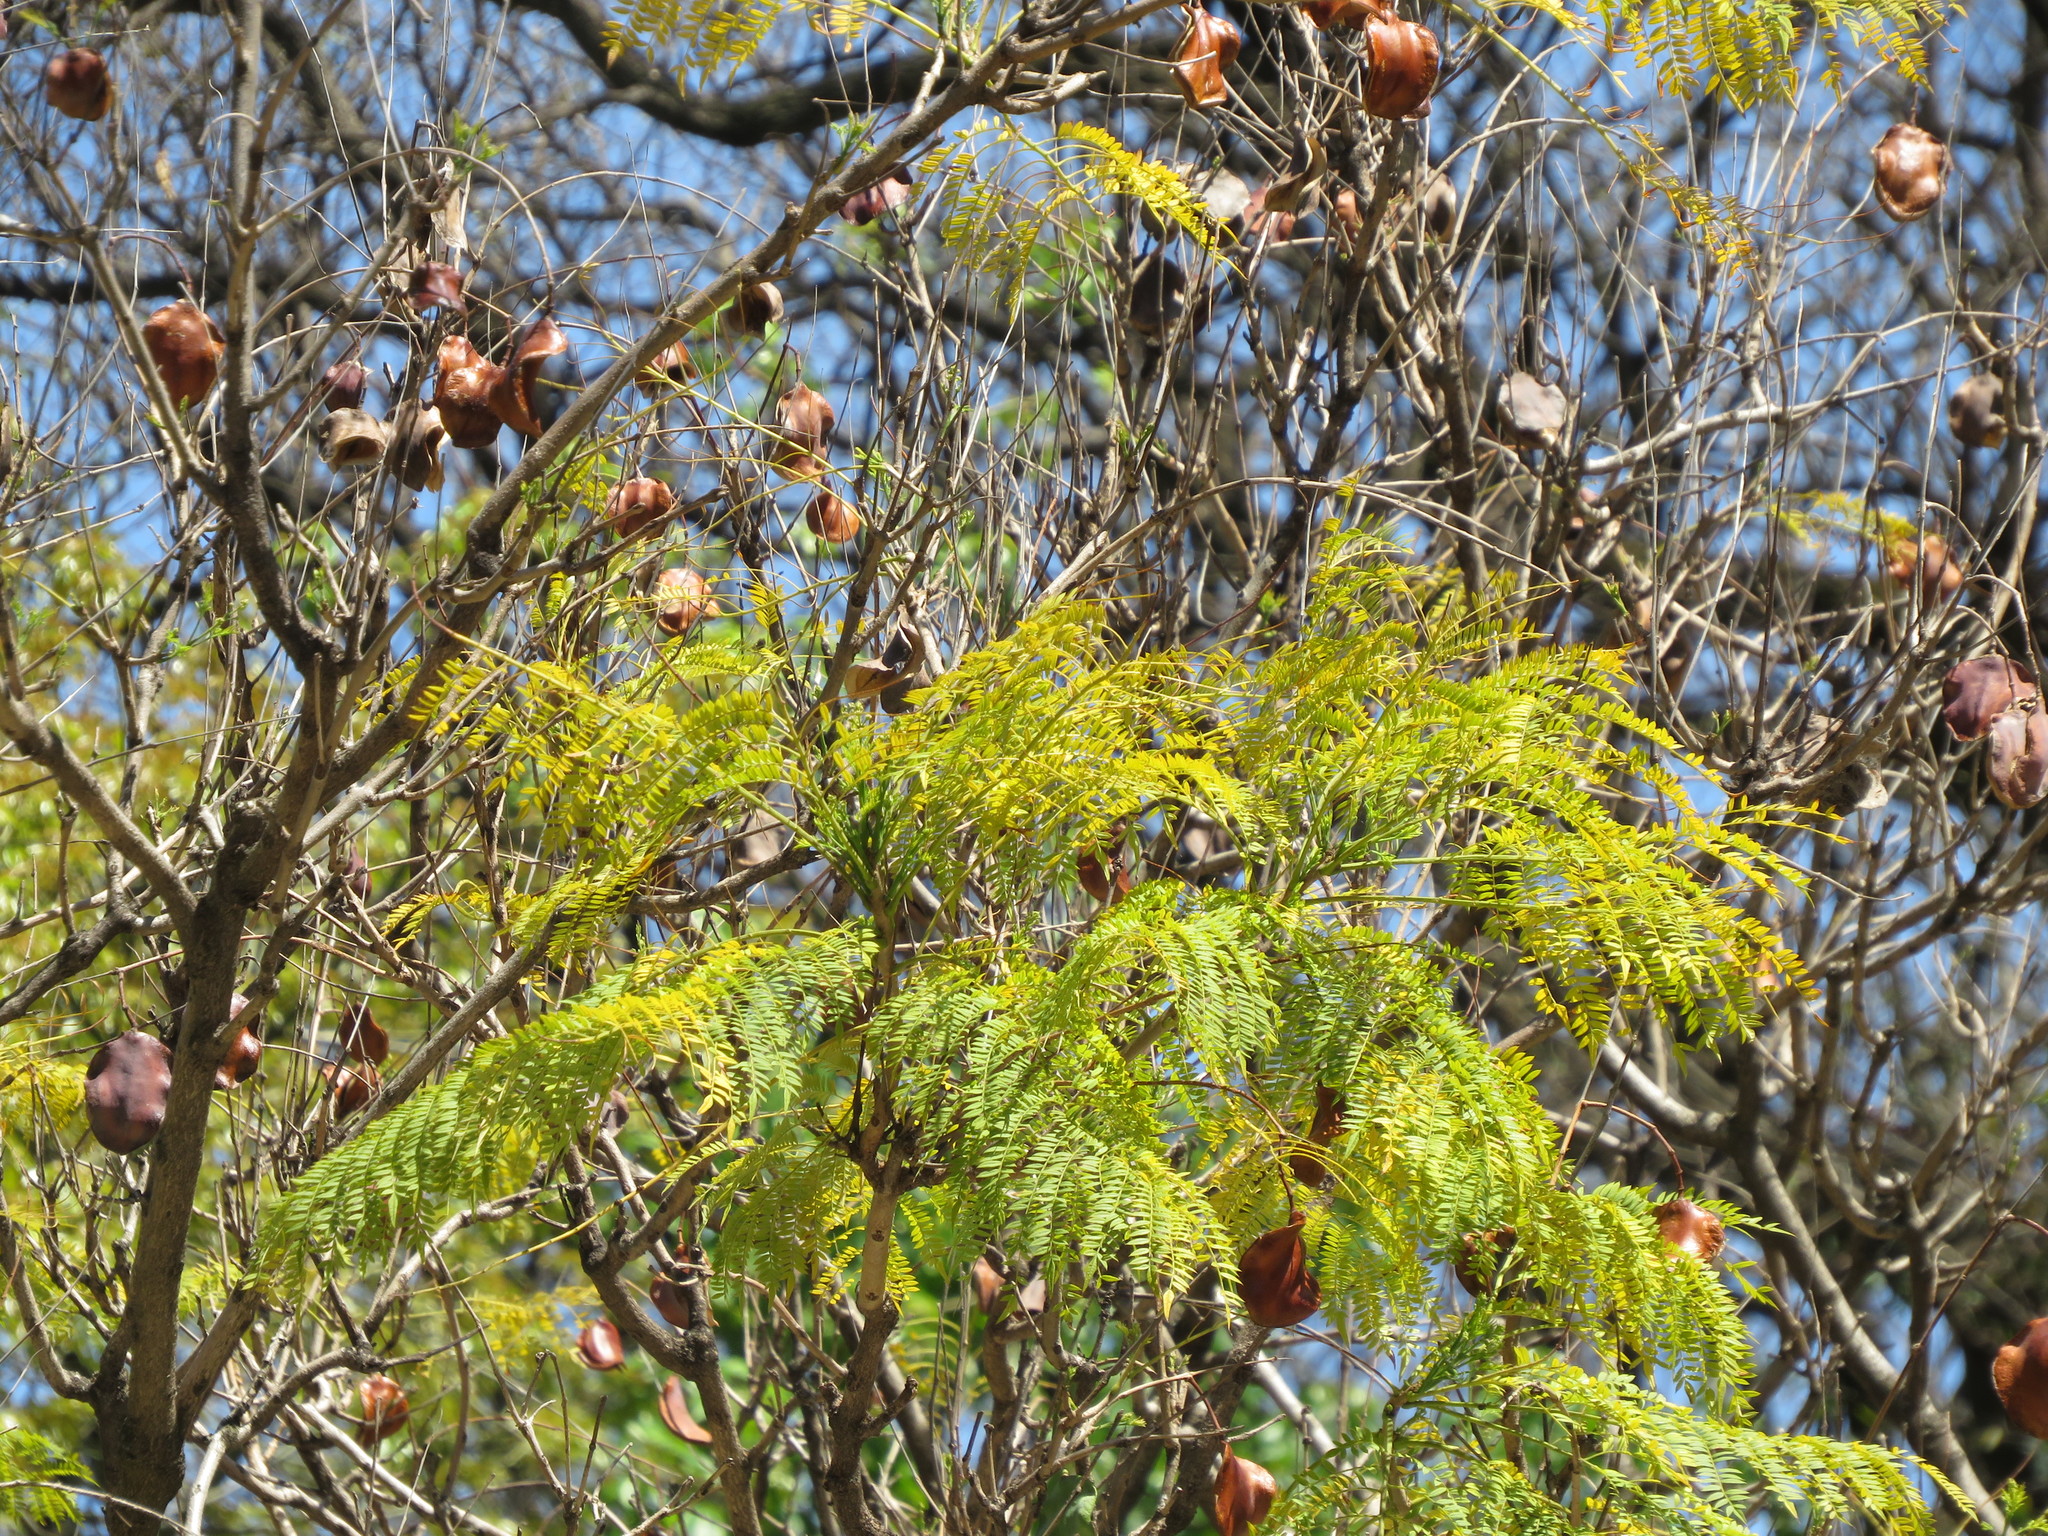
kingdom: Plantae
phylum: Tracheophyta
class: Magnoliopsida
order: Lamiales
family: Bignoniaceae
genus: Jacaranda
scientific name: Jacaranda mimosifolia
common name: Black poui
